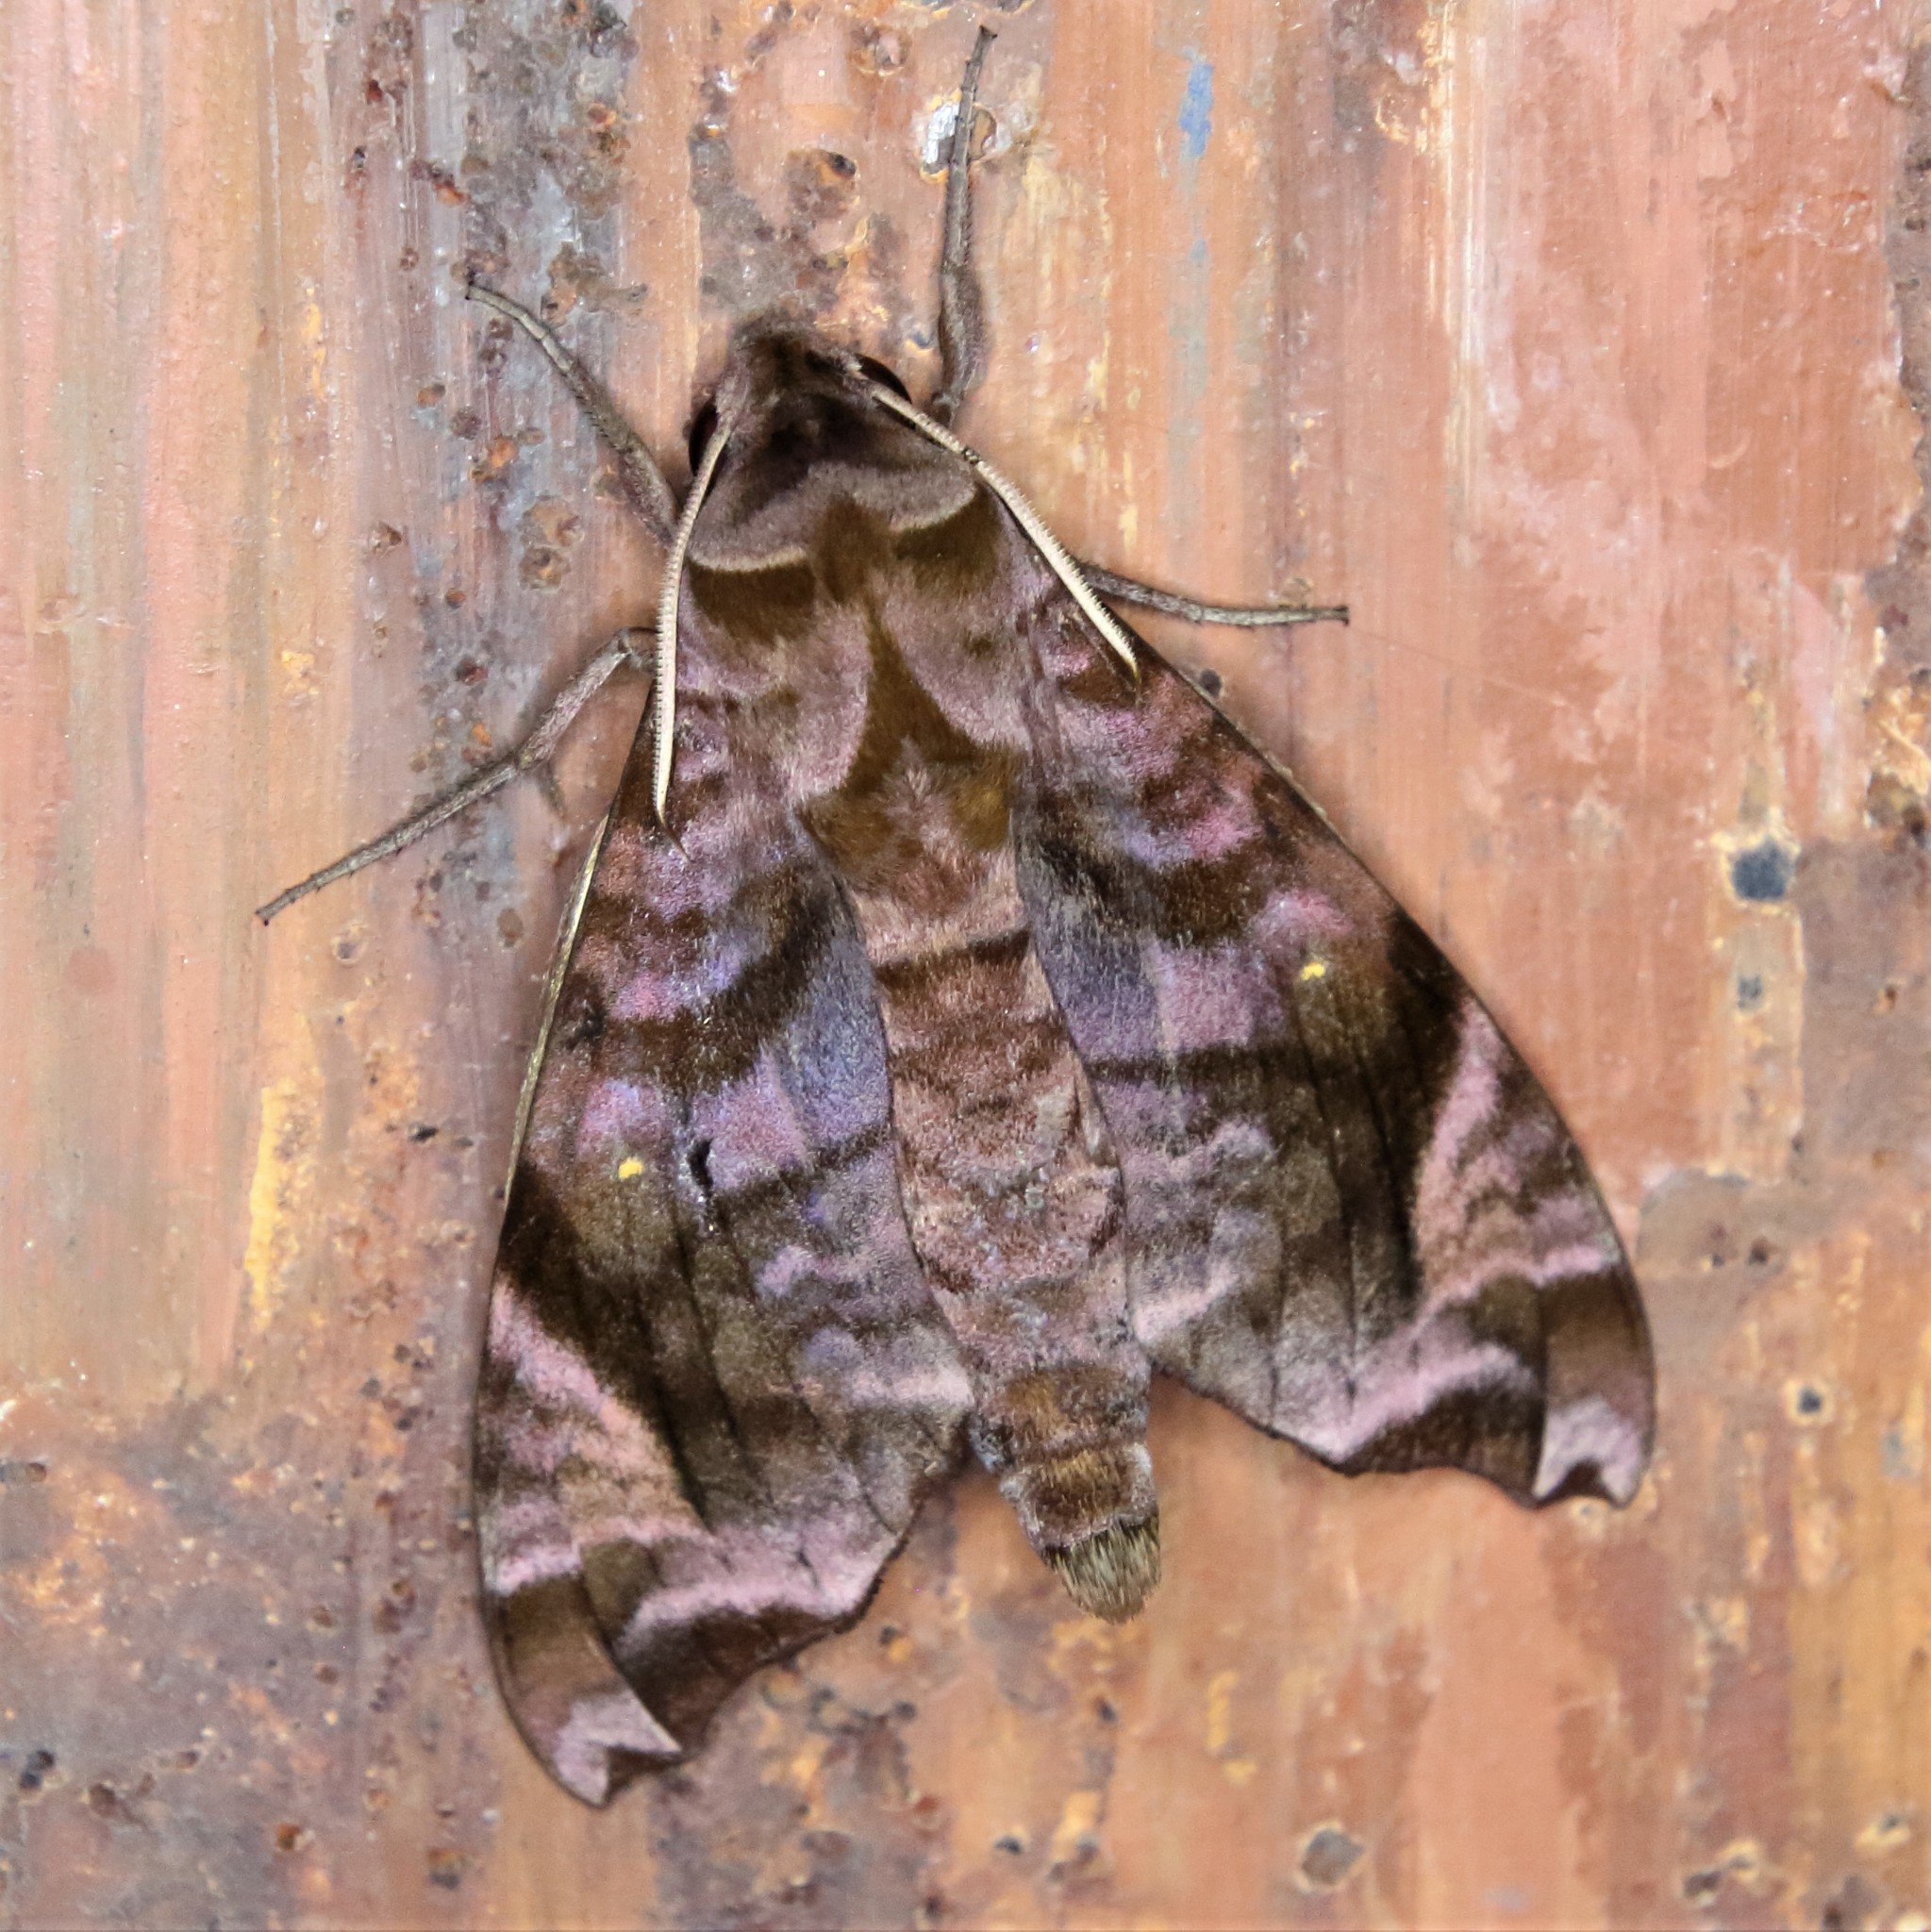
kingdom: Animalia
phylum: Arthropoda
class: Insecta
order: Lepidoptera
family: Sphingidae
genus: Acosmeryx
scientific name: Acosmeryx anceus
